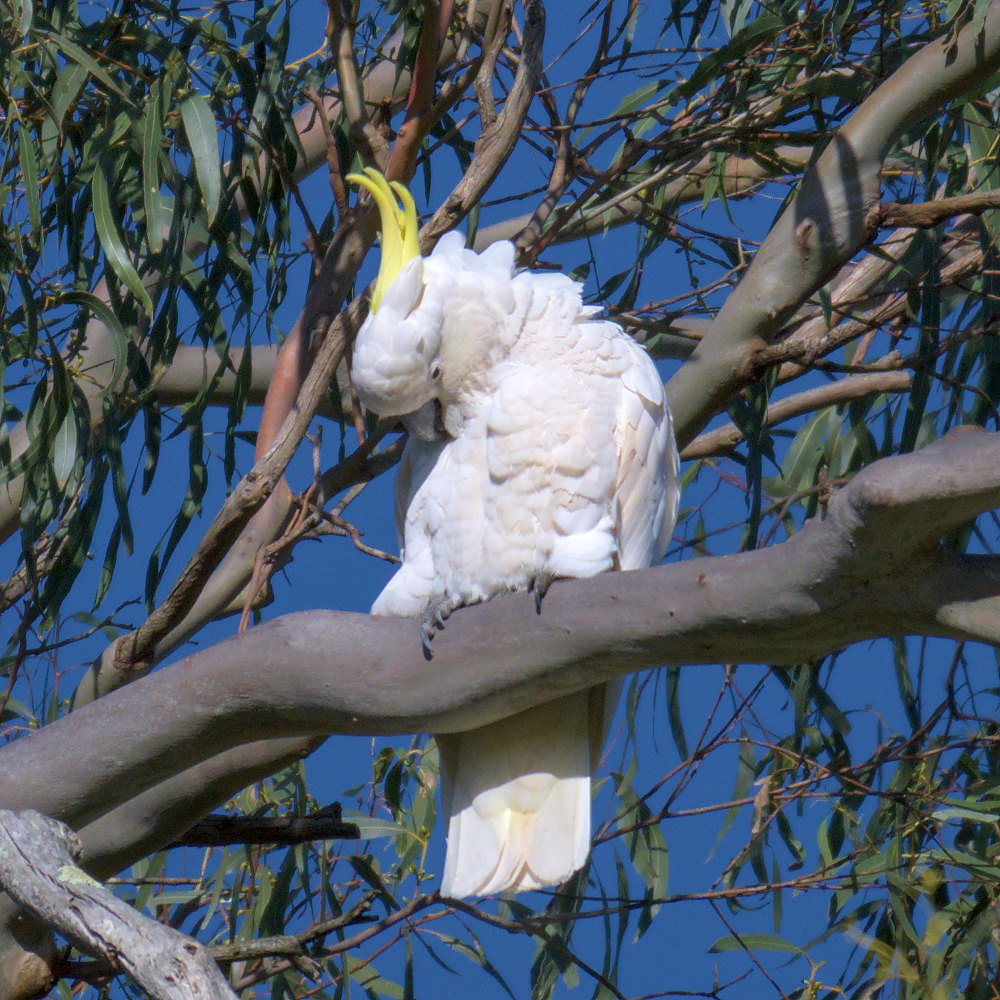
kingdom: Animalia
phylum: Chordata
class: Aves
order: Psittaciformes
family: Psittacidae
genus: Cacatua
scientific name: Cacatua galerita
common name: Sulphur-crested cockatoo
